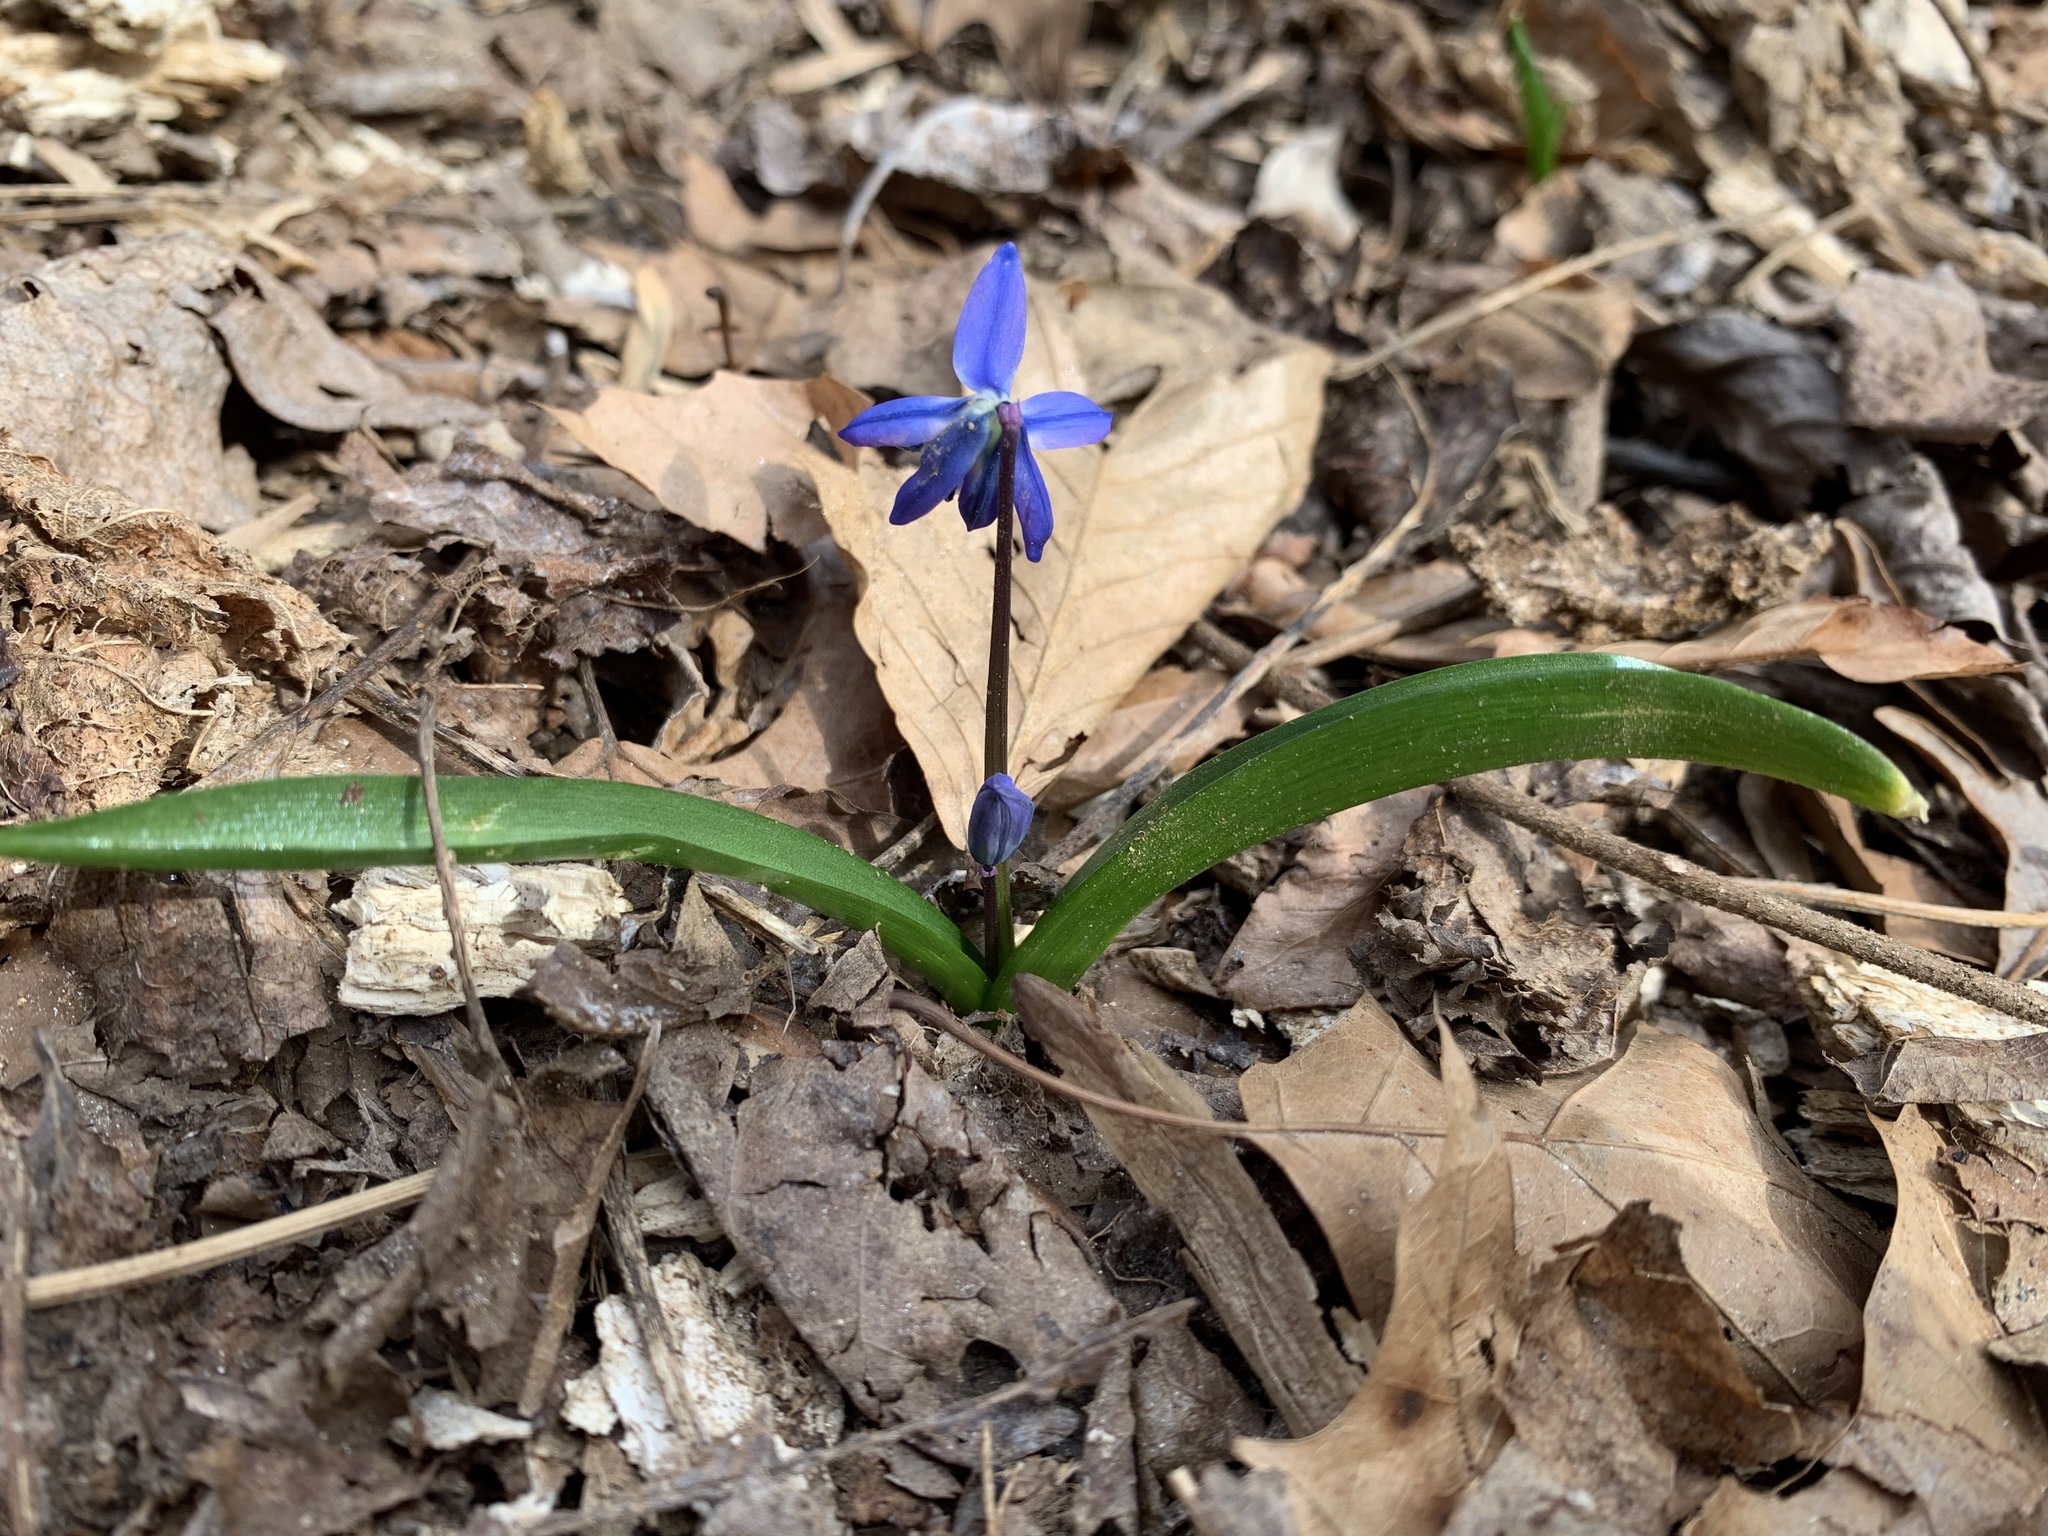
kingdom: Plantae
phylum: Tracheophyta
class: Liliopsida
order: Asparagales
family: Asparagaceae
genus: Scilla
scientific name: Scilla siberica
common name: Siberian squill
